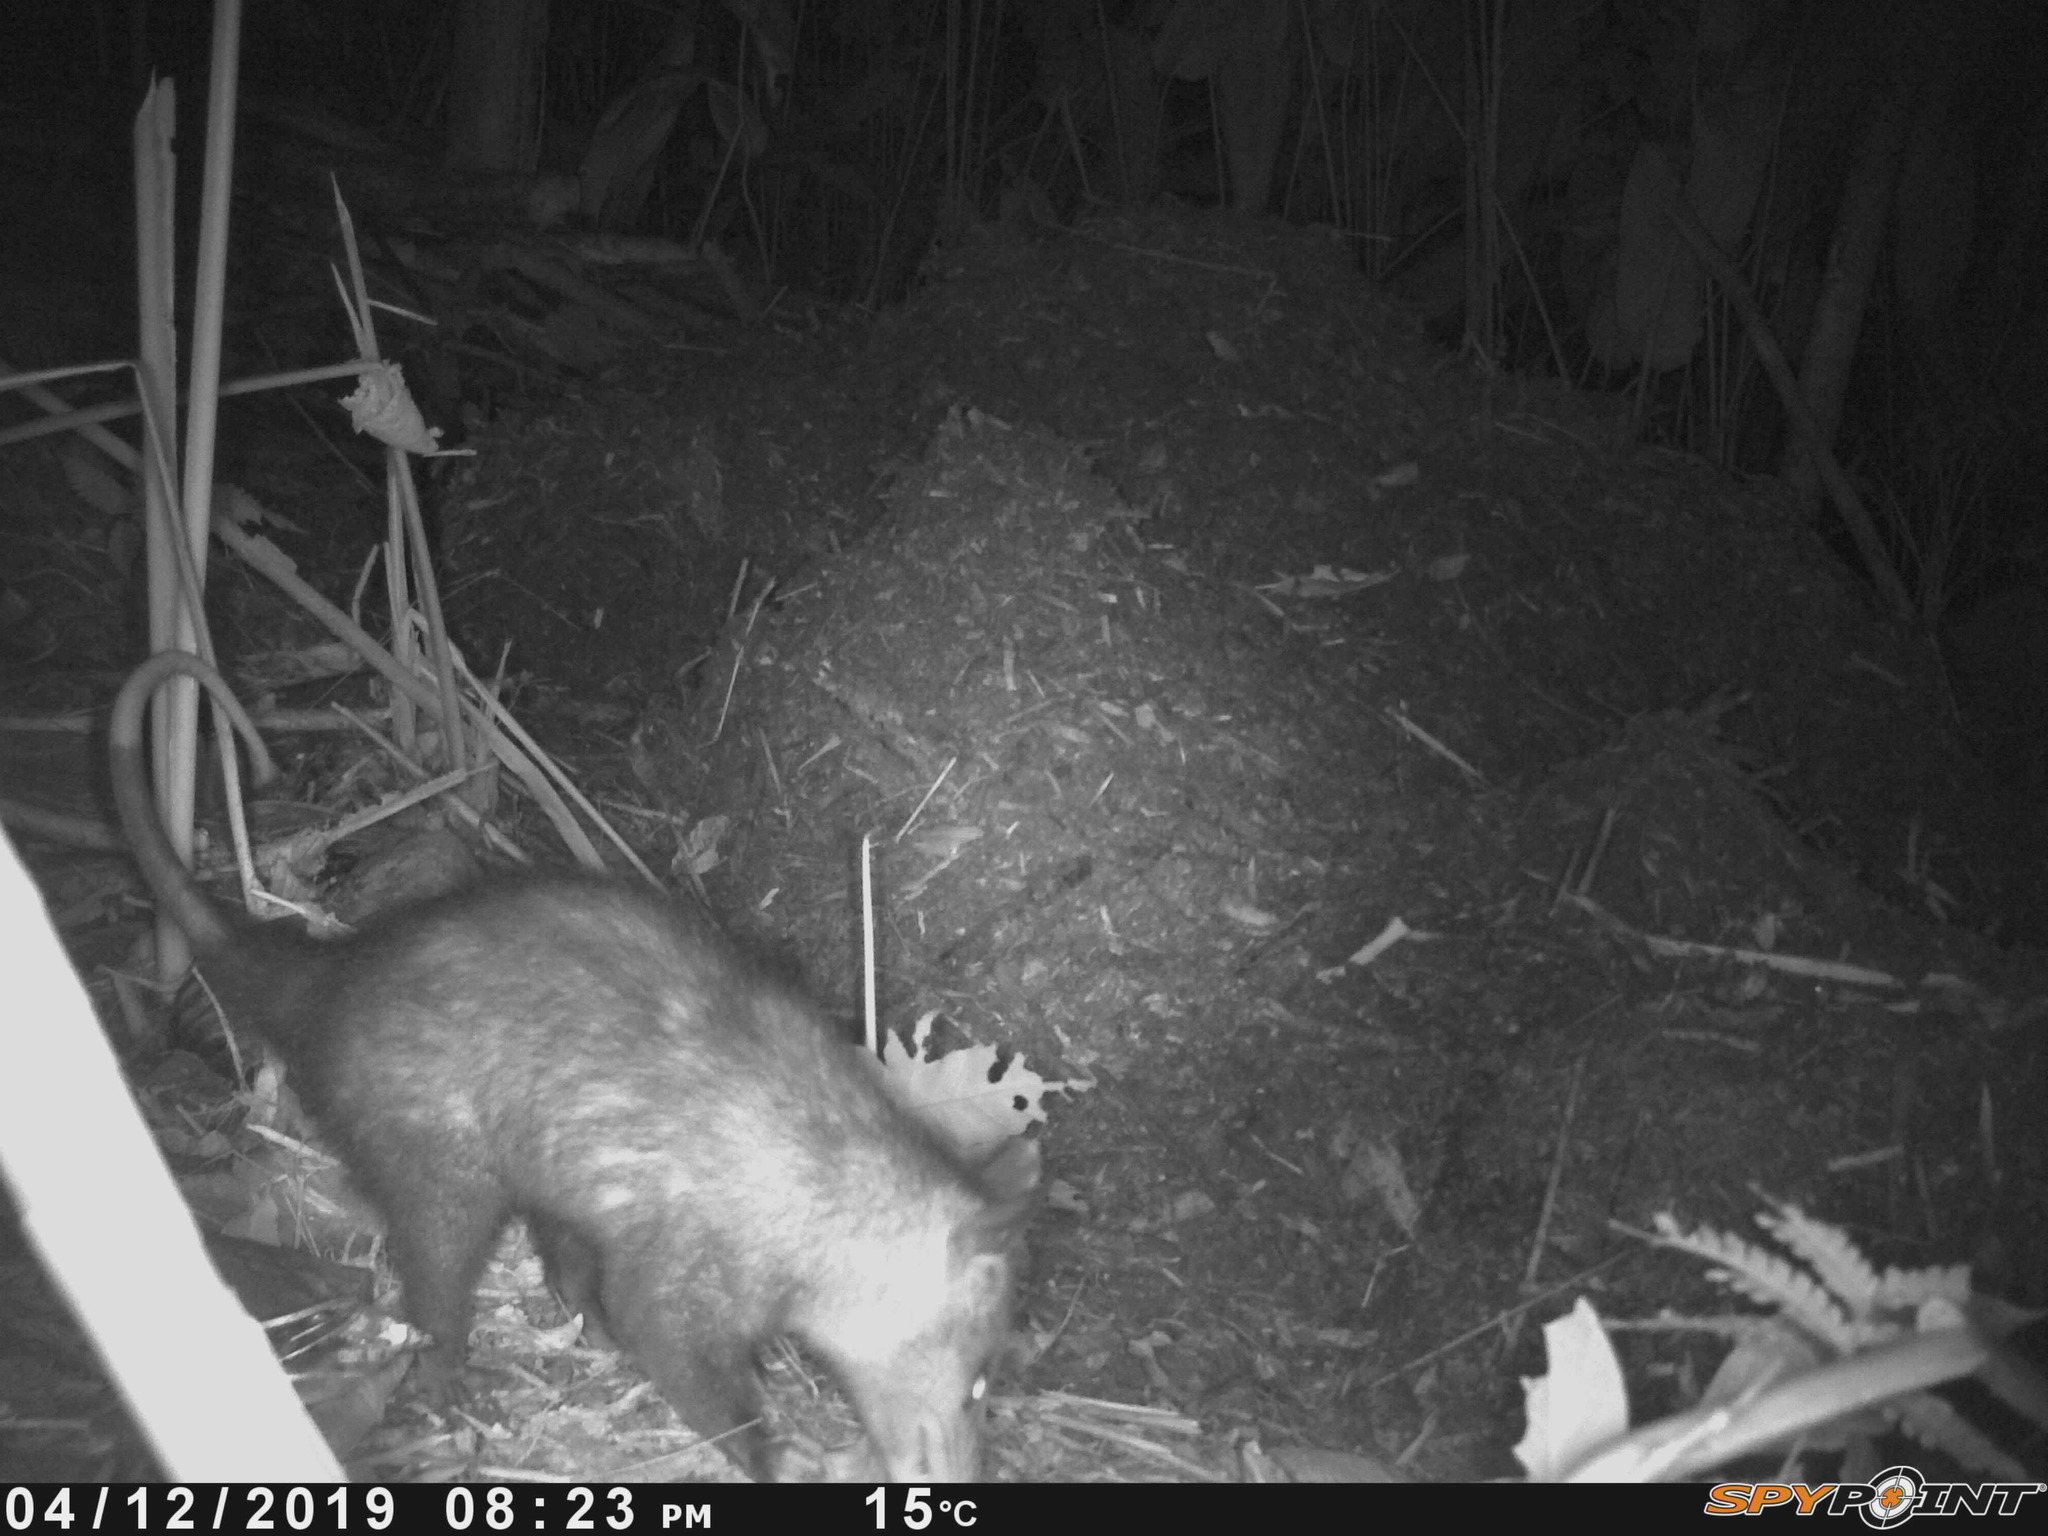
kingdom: Animalia
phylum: Chordata
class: Mammalia
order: Didelphimorphia
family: Didelphidae
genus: Didelphis
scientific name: Didelphis
